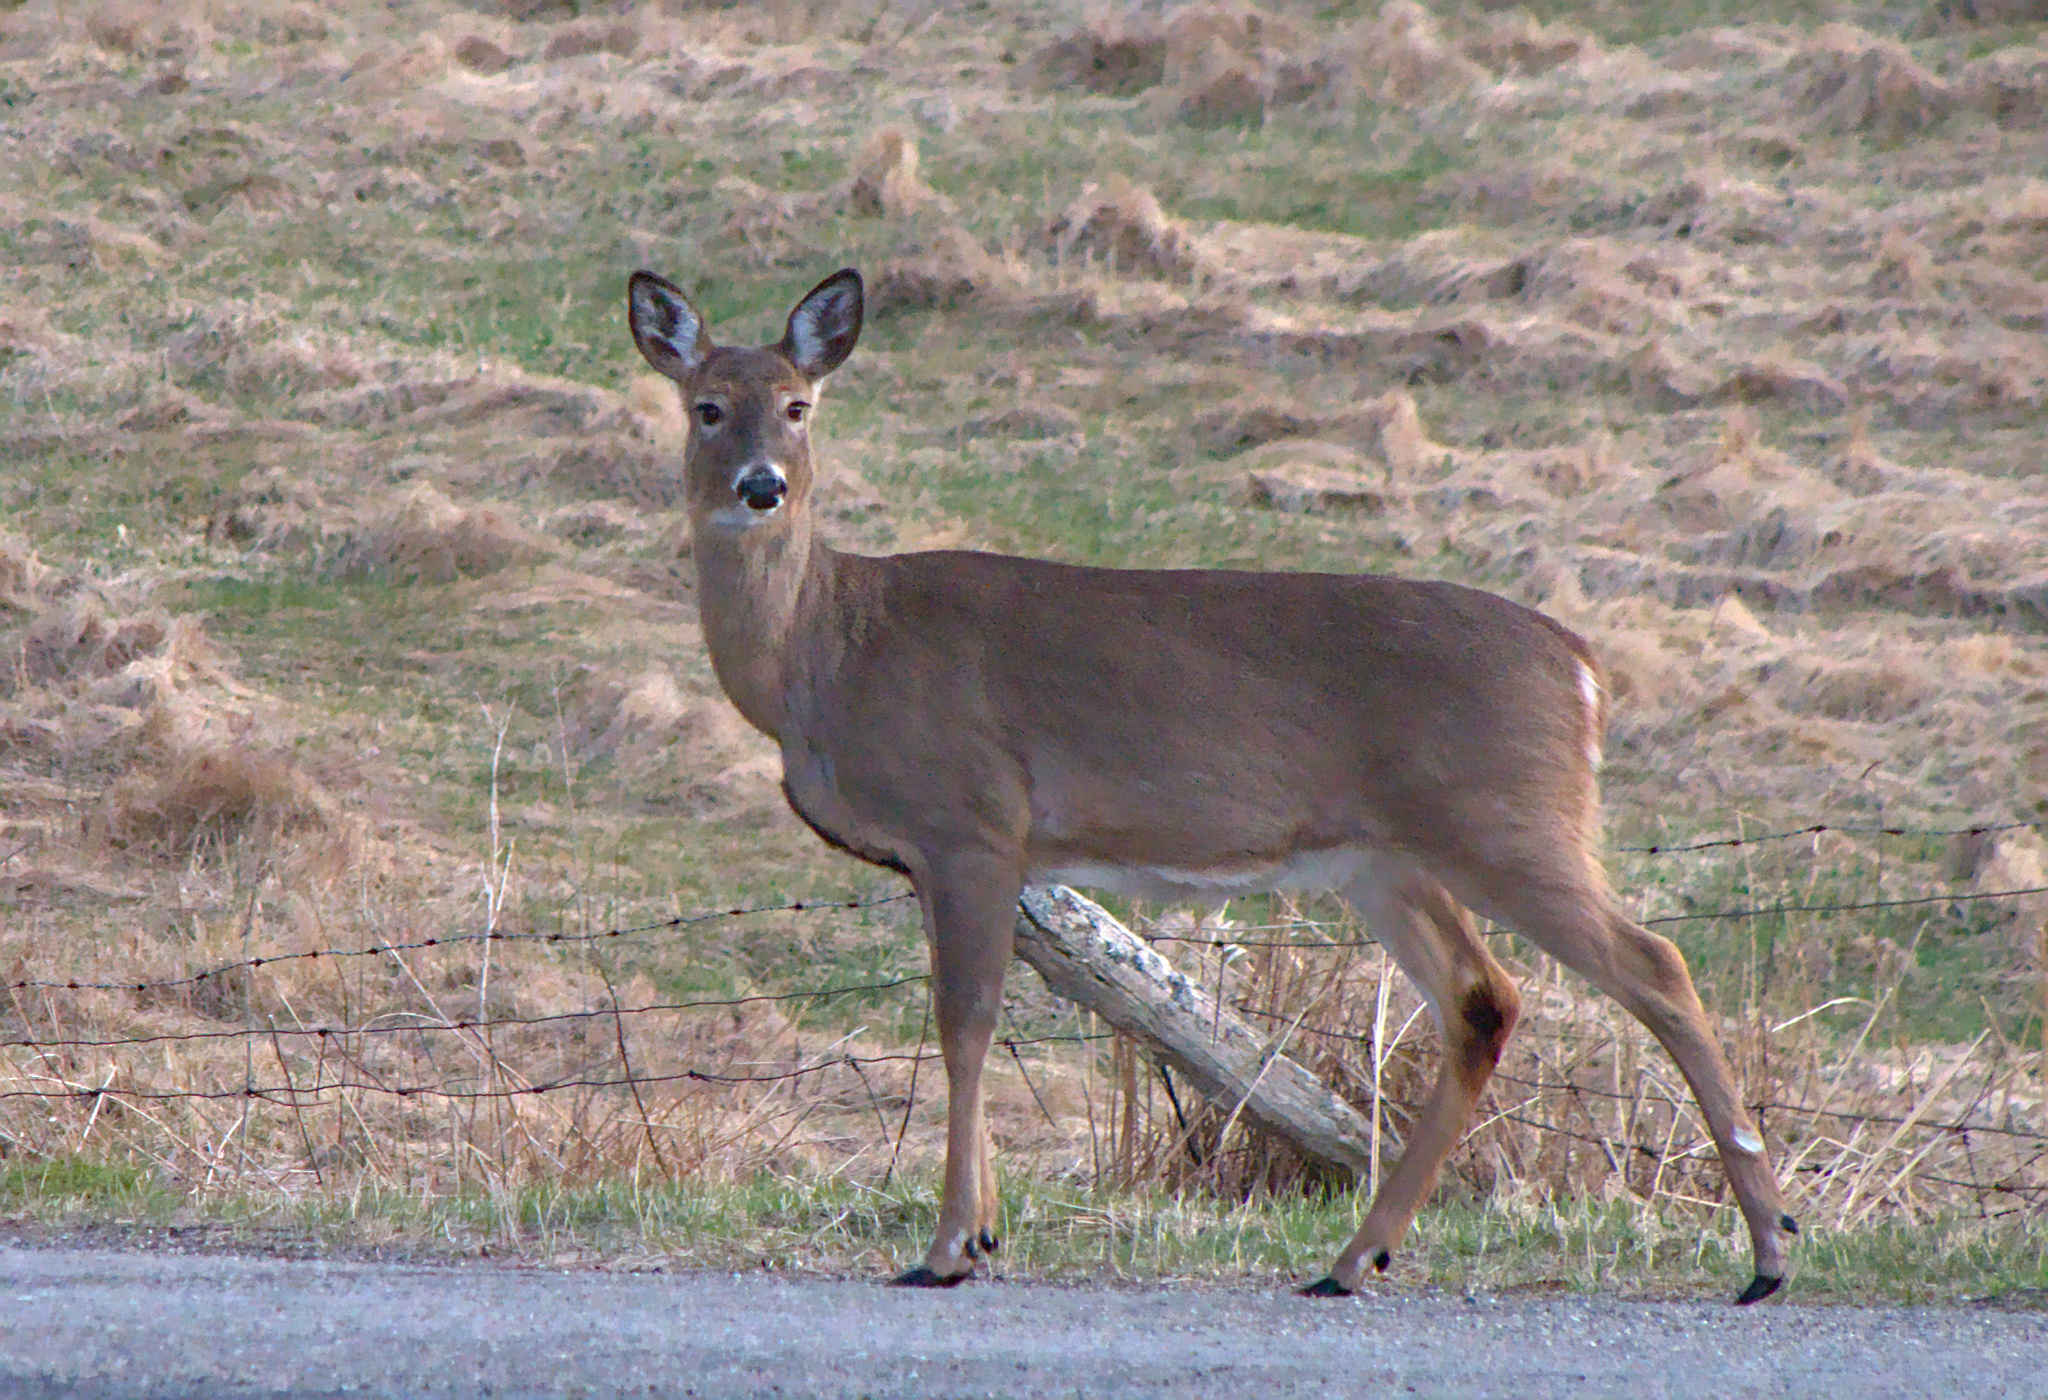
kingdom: Animalia
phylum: Chordata
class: Mammalia
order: Artiodactyla
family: Cervidae
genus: Odocoileus
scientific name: Odocoileus virginianus
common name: White-tailed deer
